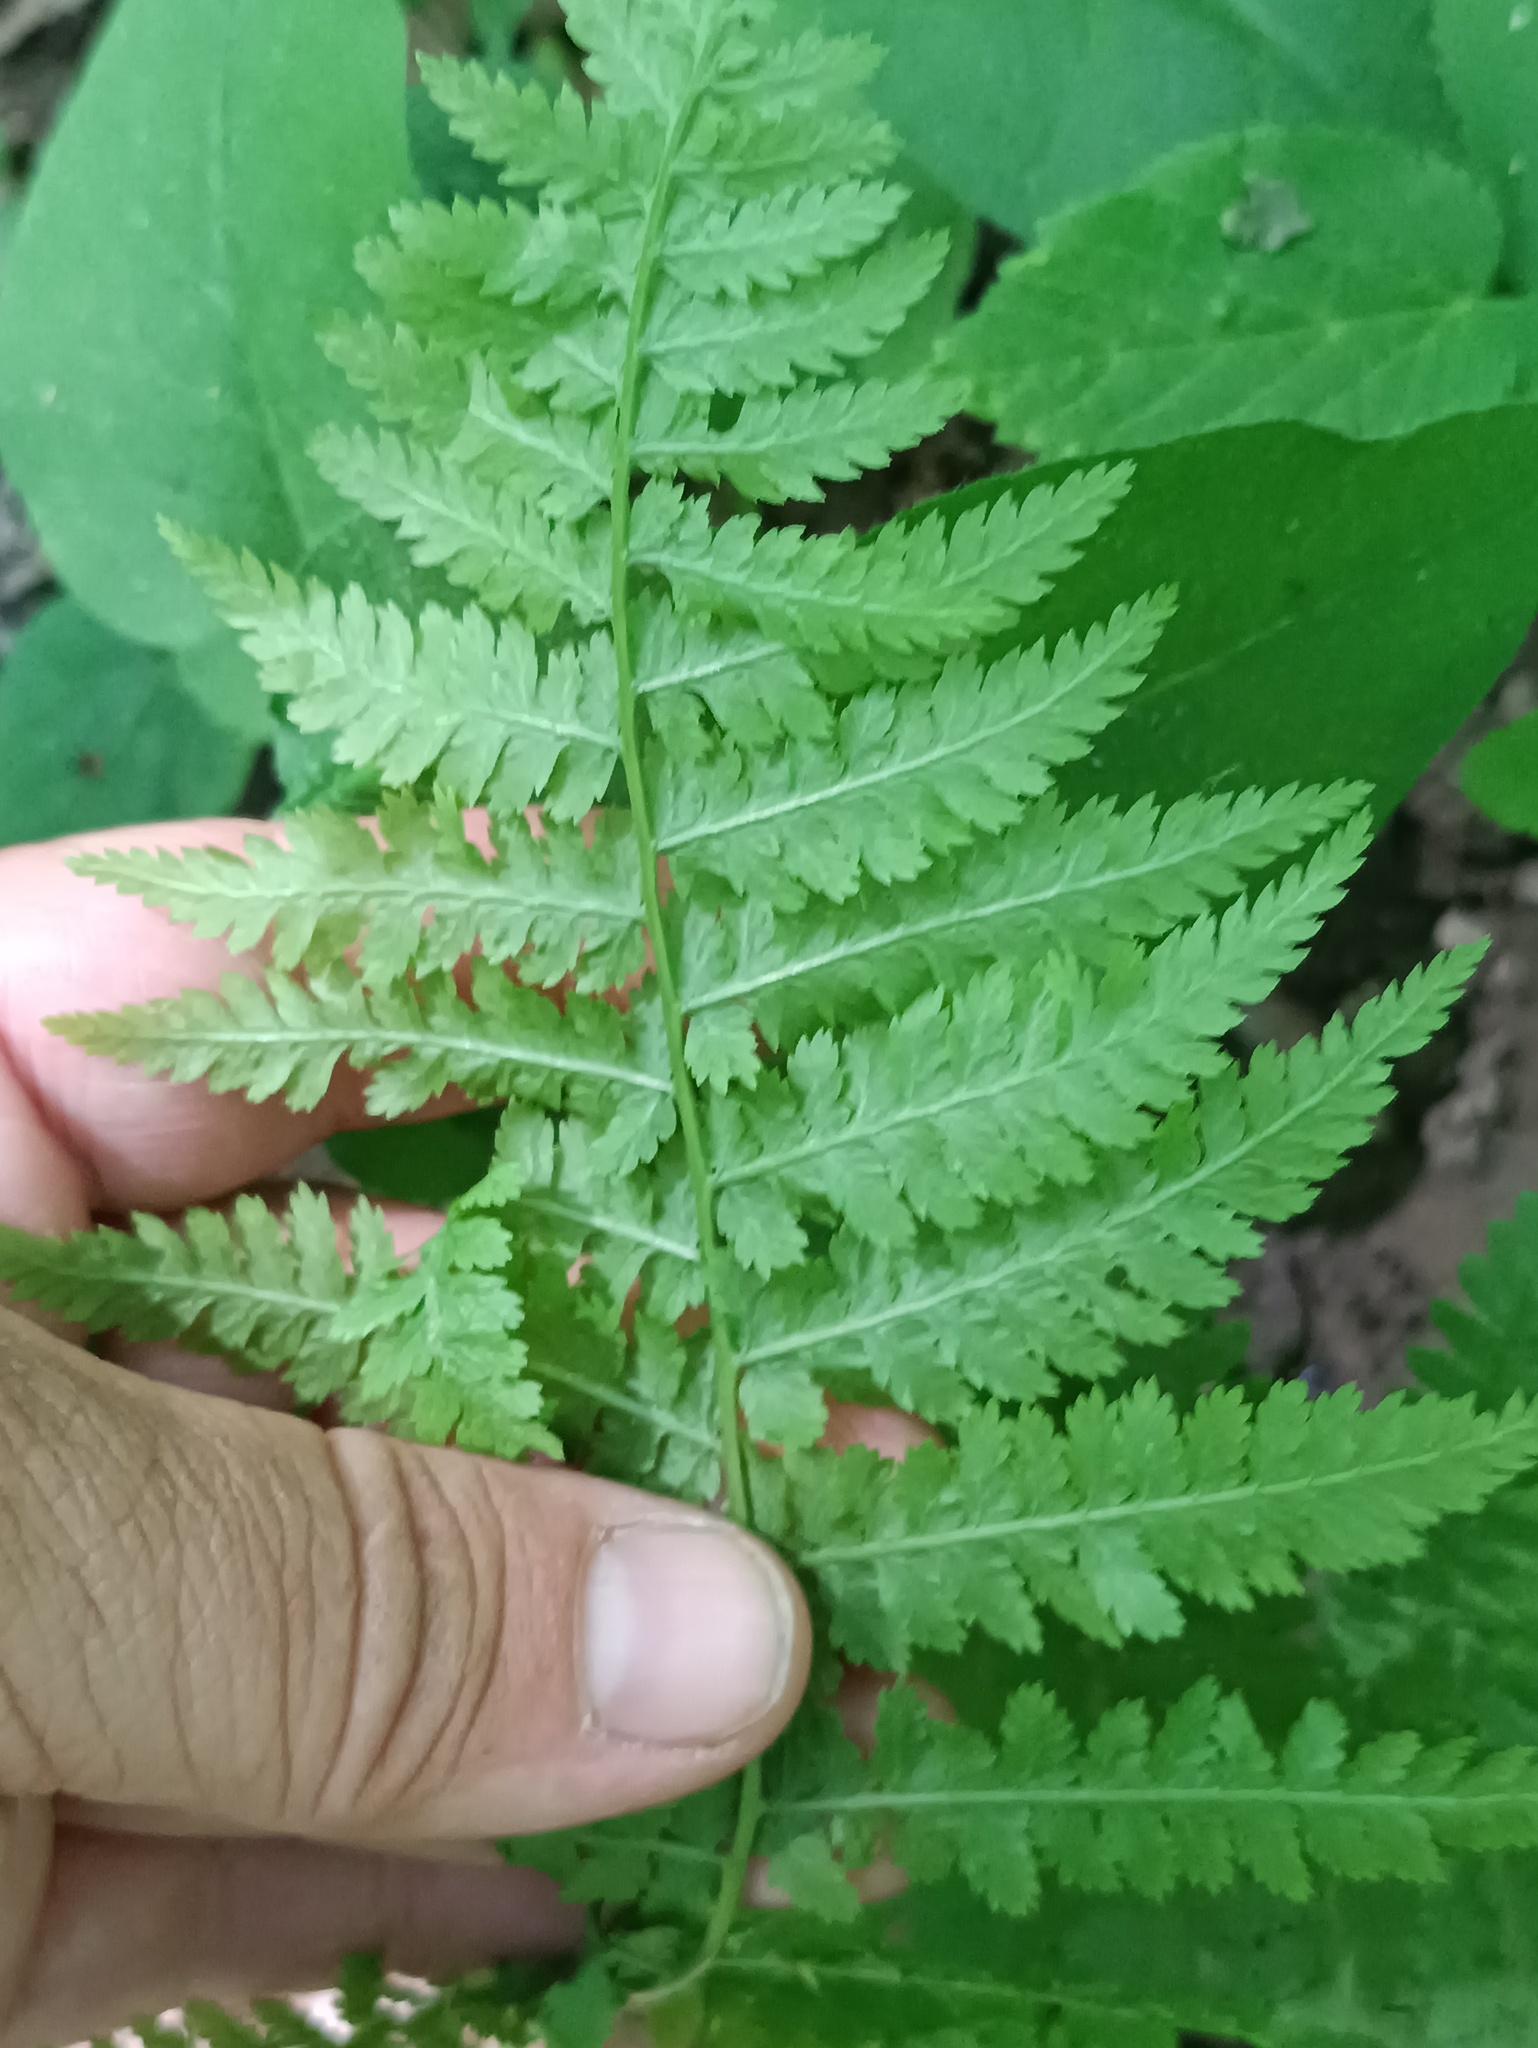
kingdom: Plantae
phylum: Tracheophyta
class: Polypodiopsida
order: Polypodiales
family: Athyriaceae
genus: Athyrium
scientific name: Athyrium filix-femina
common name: Lady fern
